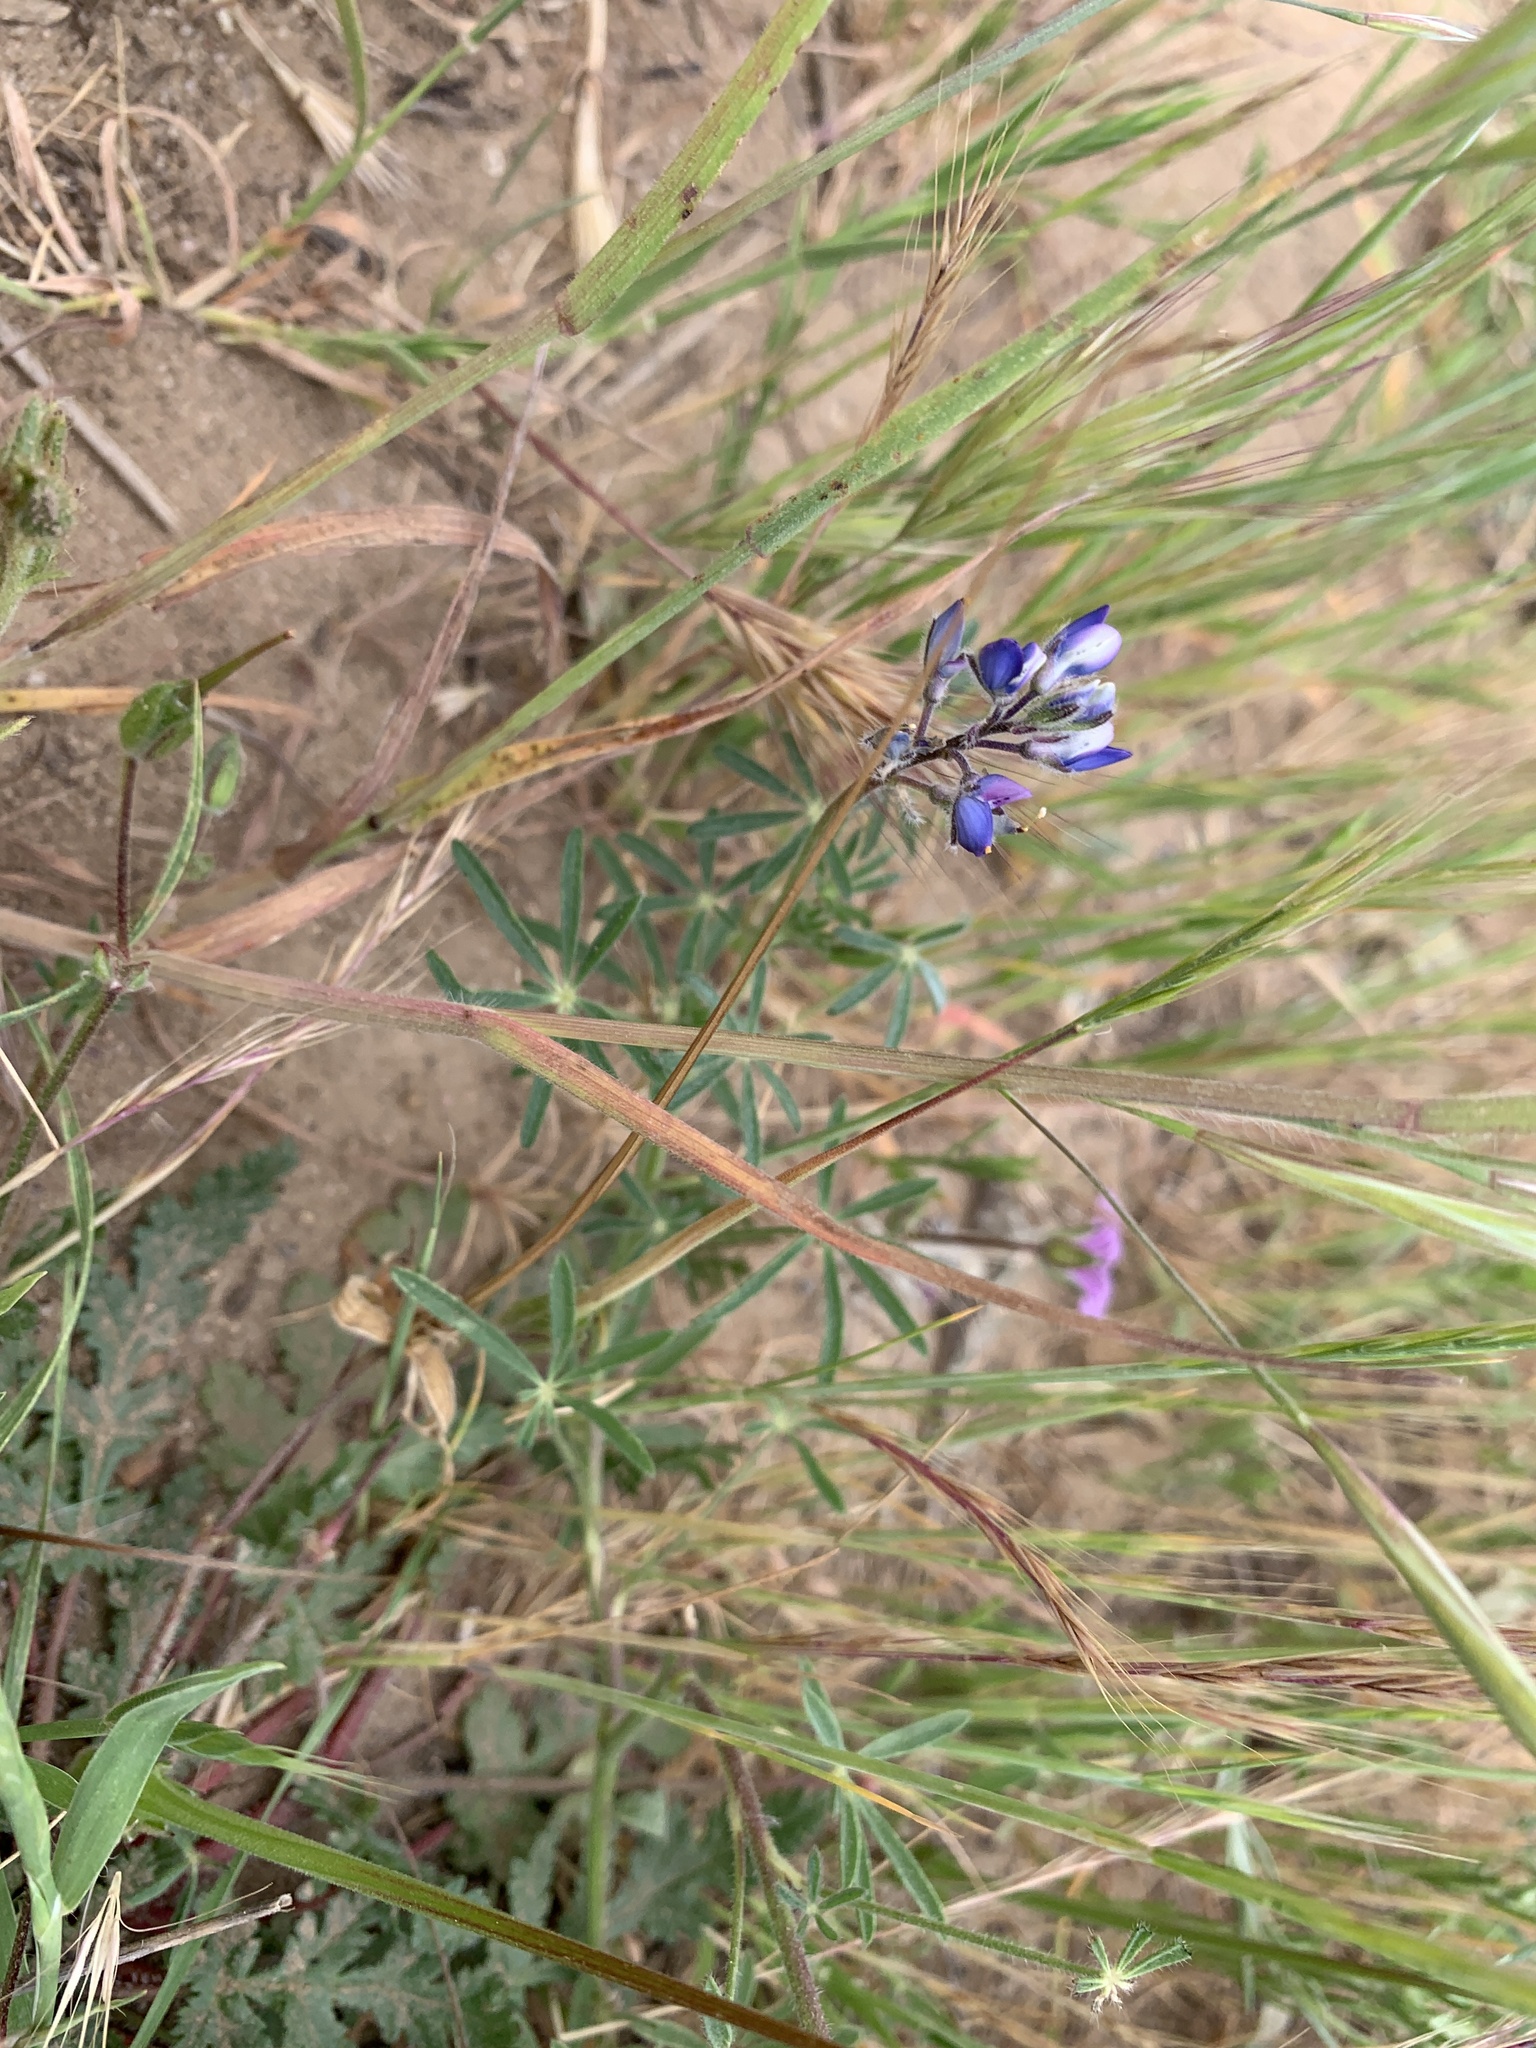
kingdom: Plantae
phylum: Tracheophyta
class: Magnoliopsida
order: Fabales
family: Fabaceae
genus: Lupinus
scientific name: Lupinus truncatus
